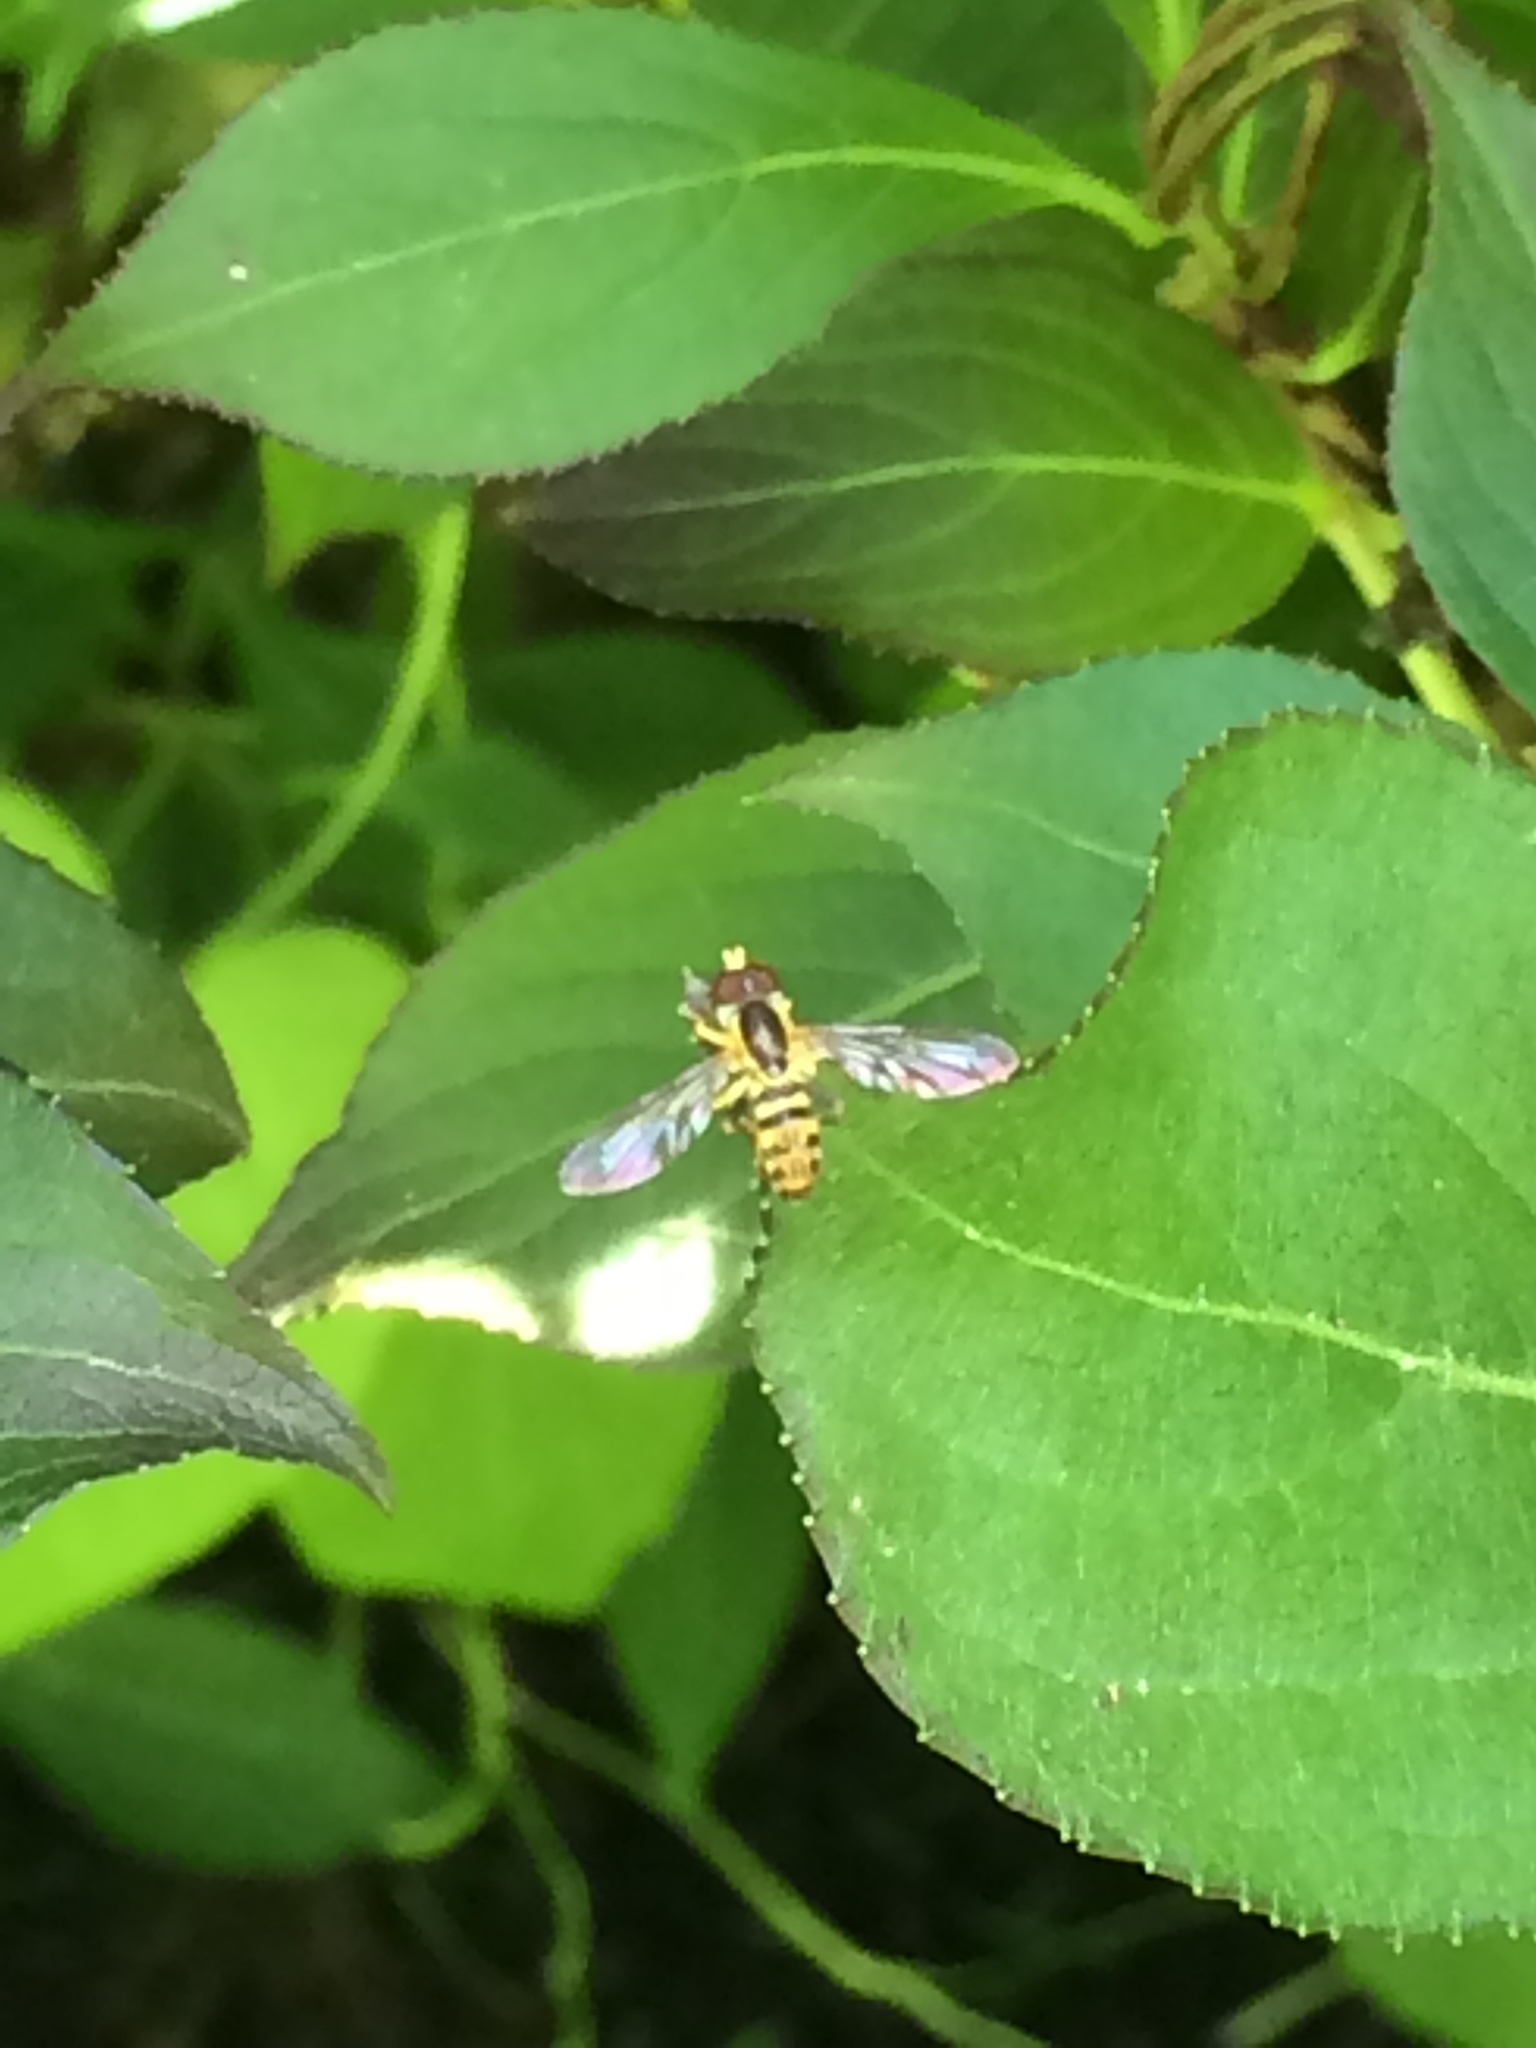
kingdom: Animalia
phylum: Arthropoda
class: Insecta
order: Diptera
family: Syrphidae
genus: Toxomerus
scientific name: Toxomerus geminatus
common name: Eastern calligrapher
